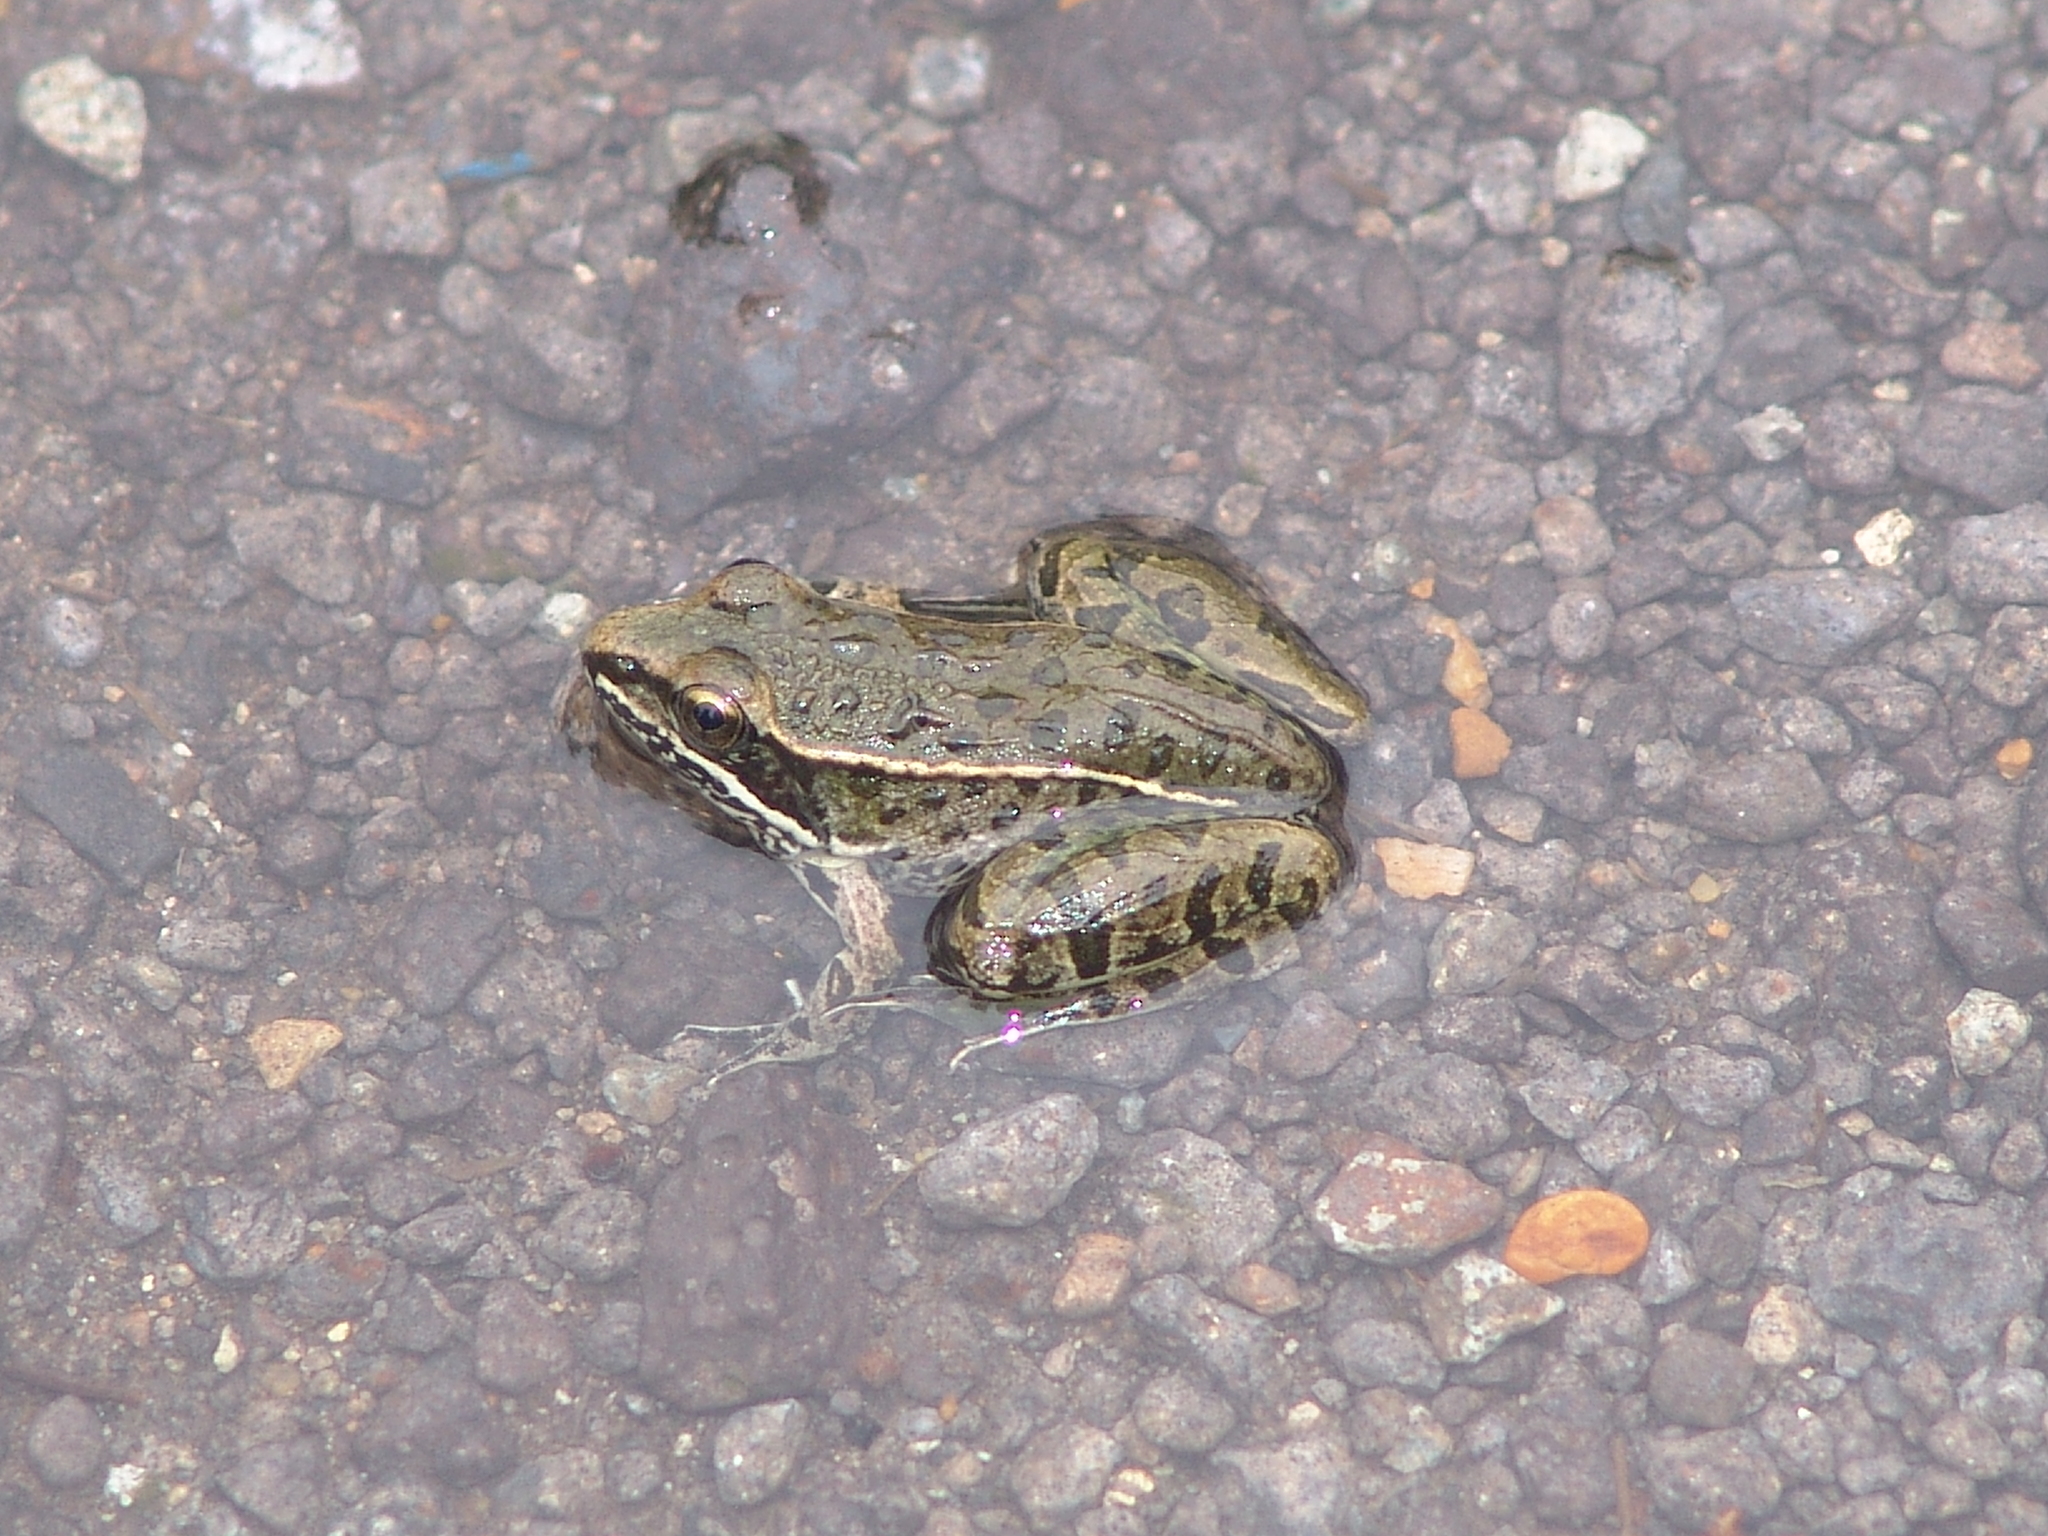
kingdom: Animalia
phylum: Chordata
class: Amphibia
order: Anura
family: Ranidae
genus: Lithobates
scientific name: Lithobates sphenocephalus
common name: Southern leopard frog
